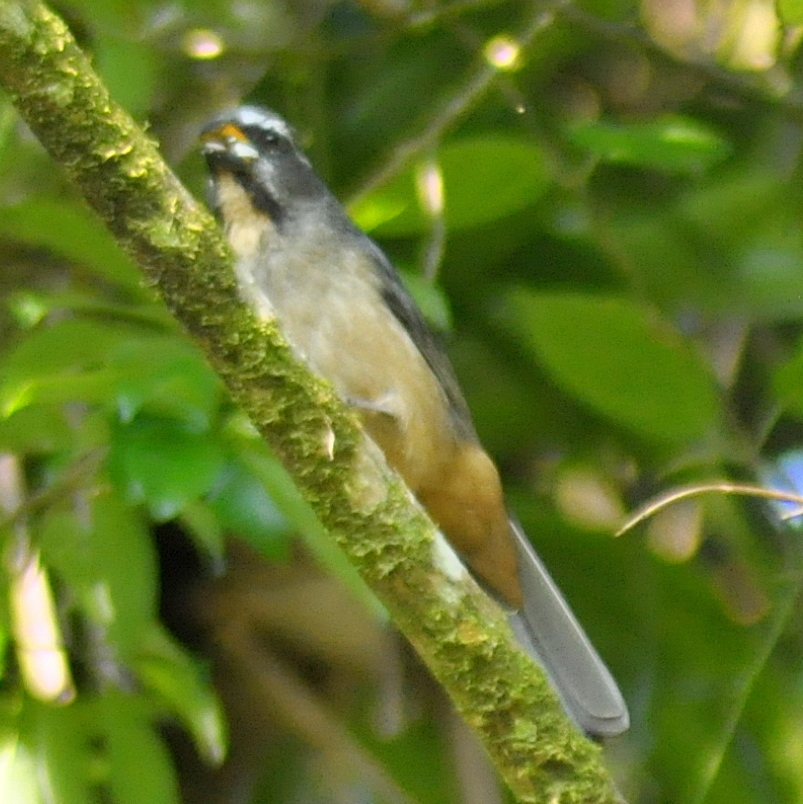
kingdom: Animalia
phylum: Chordata
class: Aves
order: Passeriformes
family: Thraupidae
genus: Saltator
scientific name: Saltator maxillosus
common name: Thick-billed saltator
